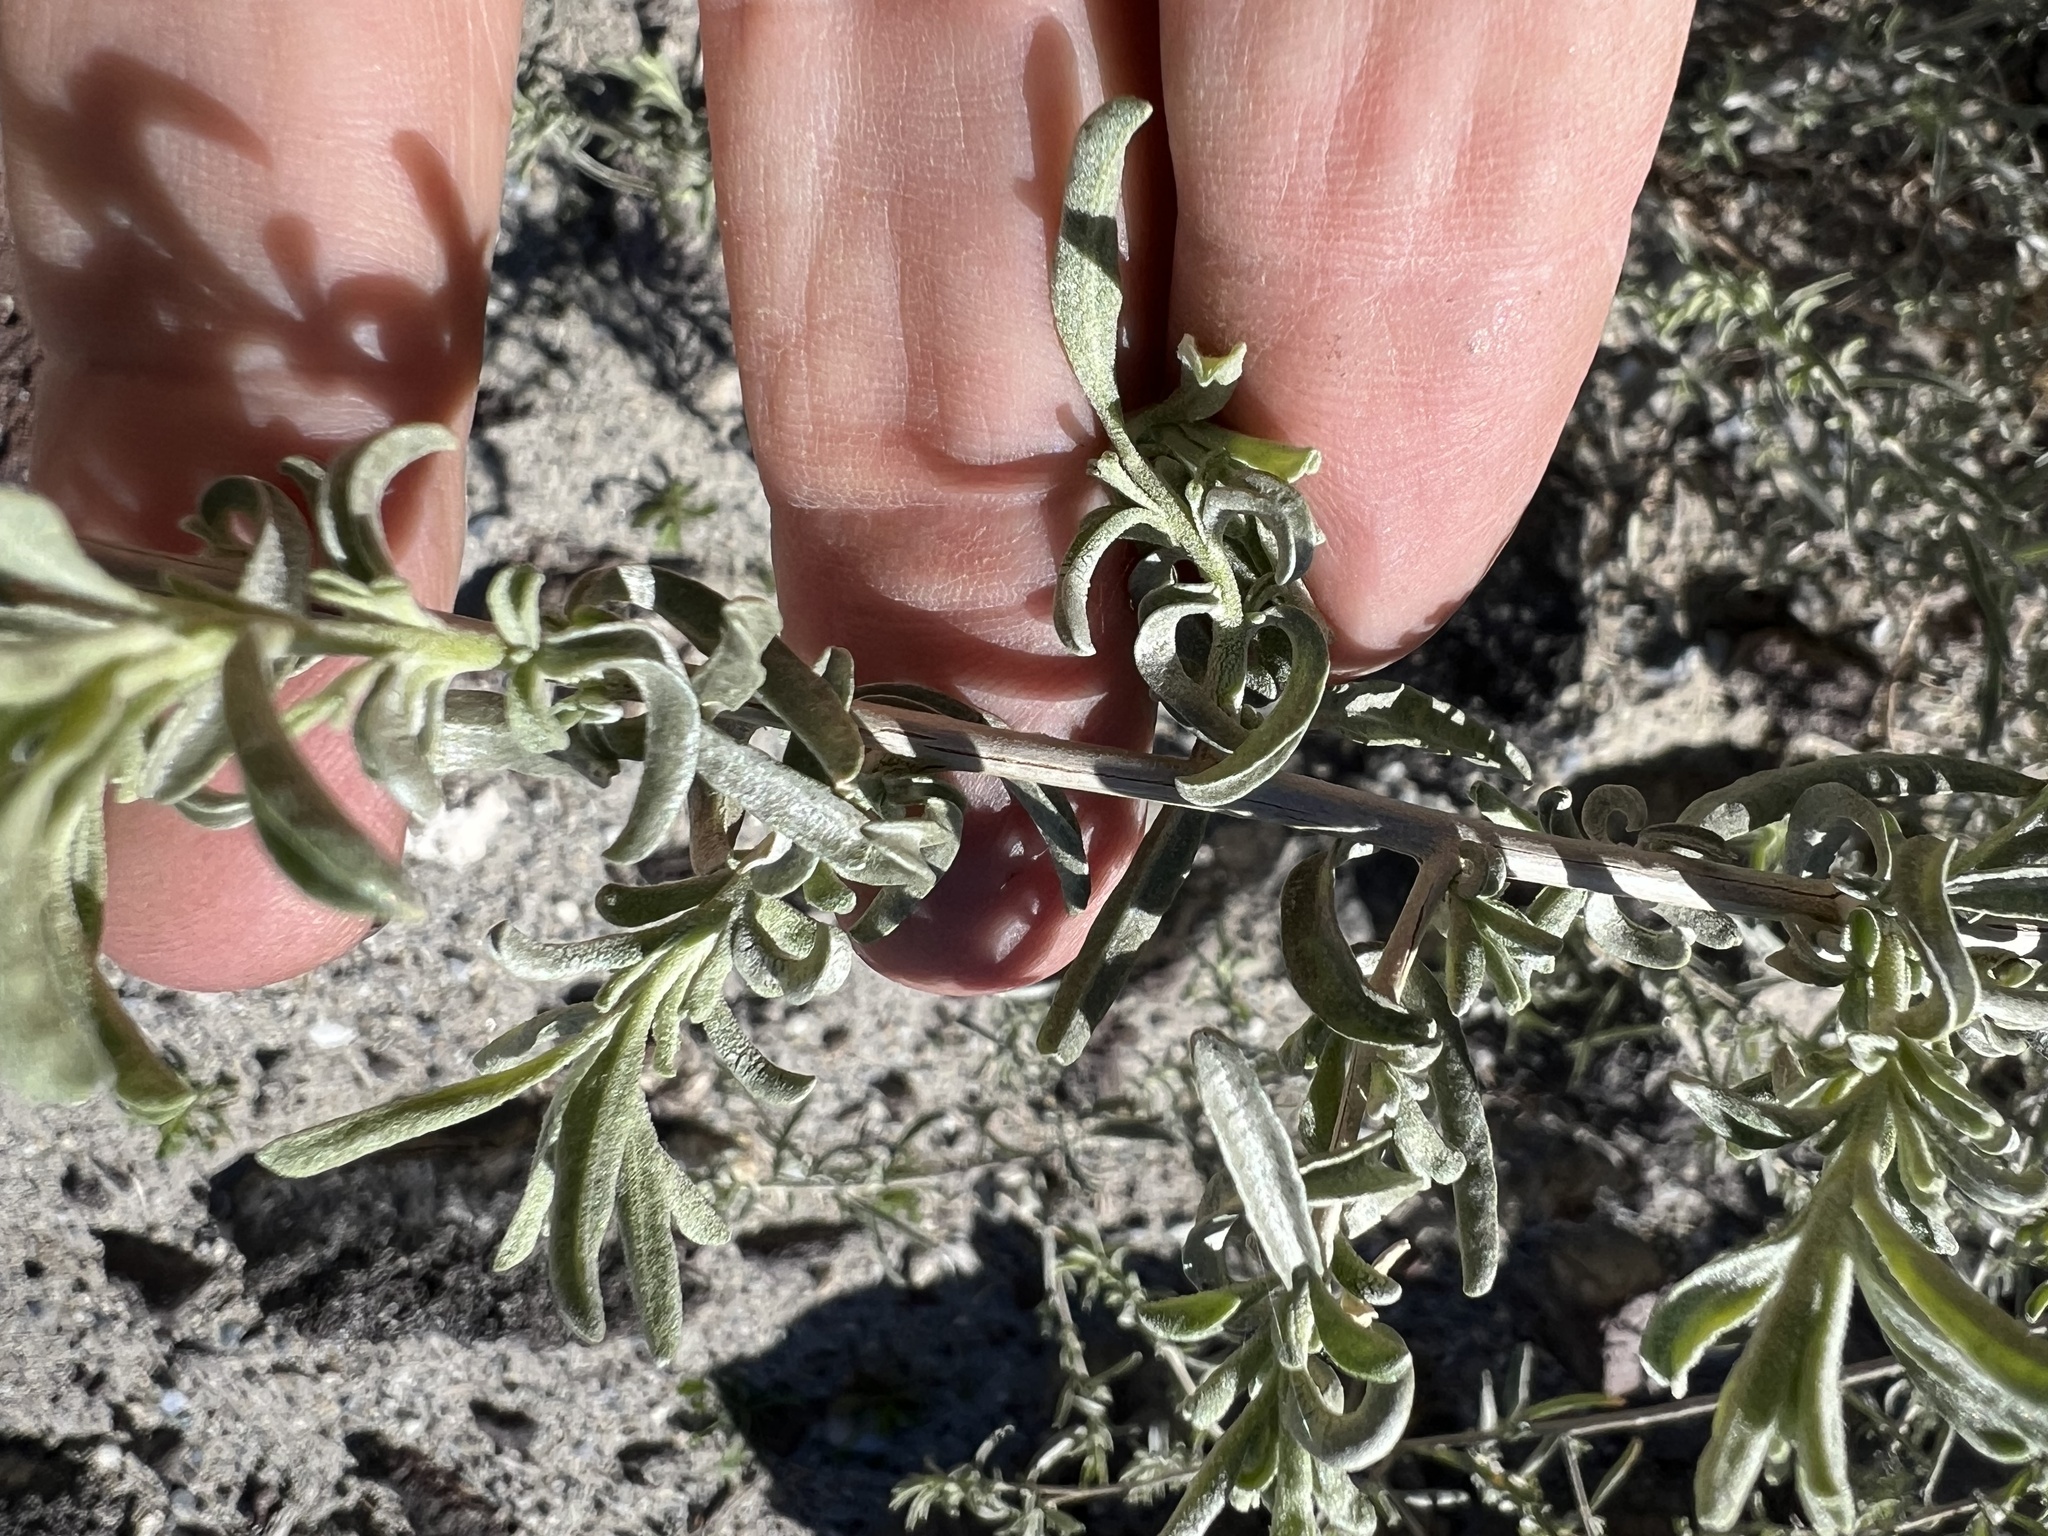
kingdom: Plantae
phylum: Tracheophyta
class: Magnoliopsida
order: Caryophyllales
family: Amaranthaceae
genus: Atriplex
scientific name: Atriplex canescens
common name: Four-wing saltbush
